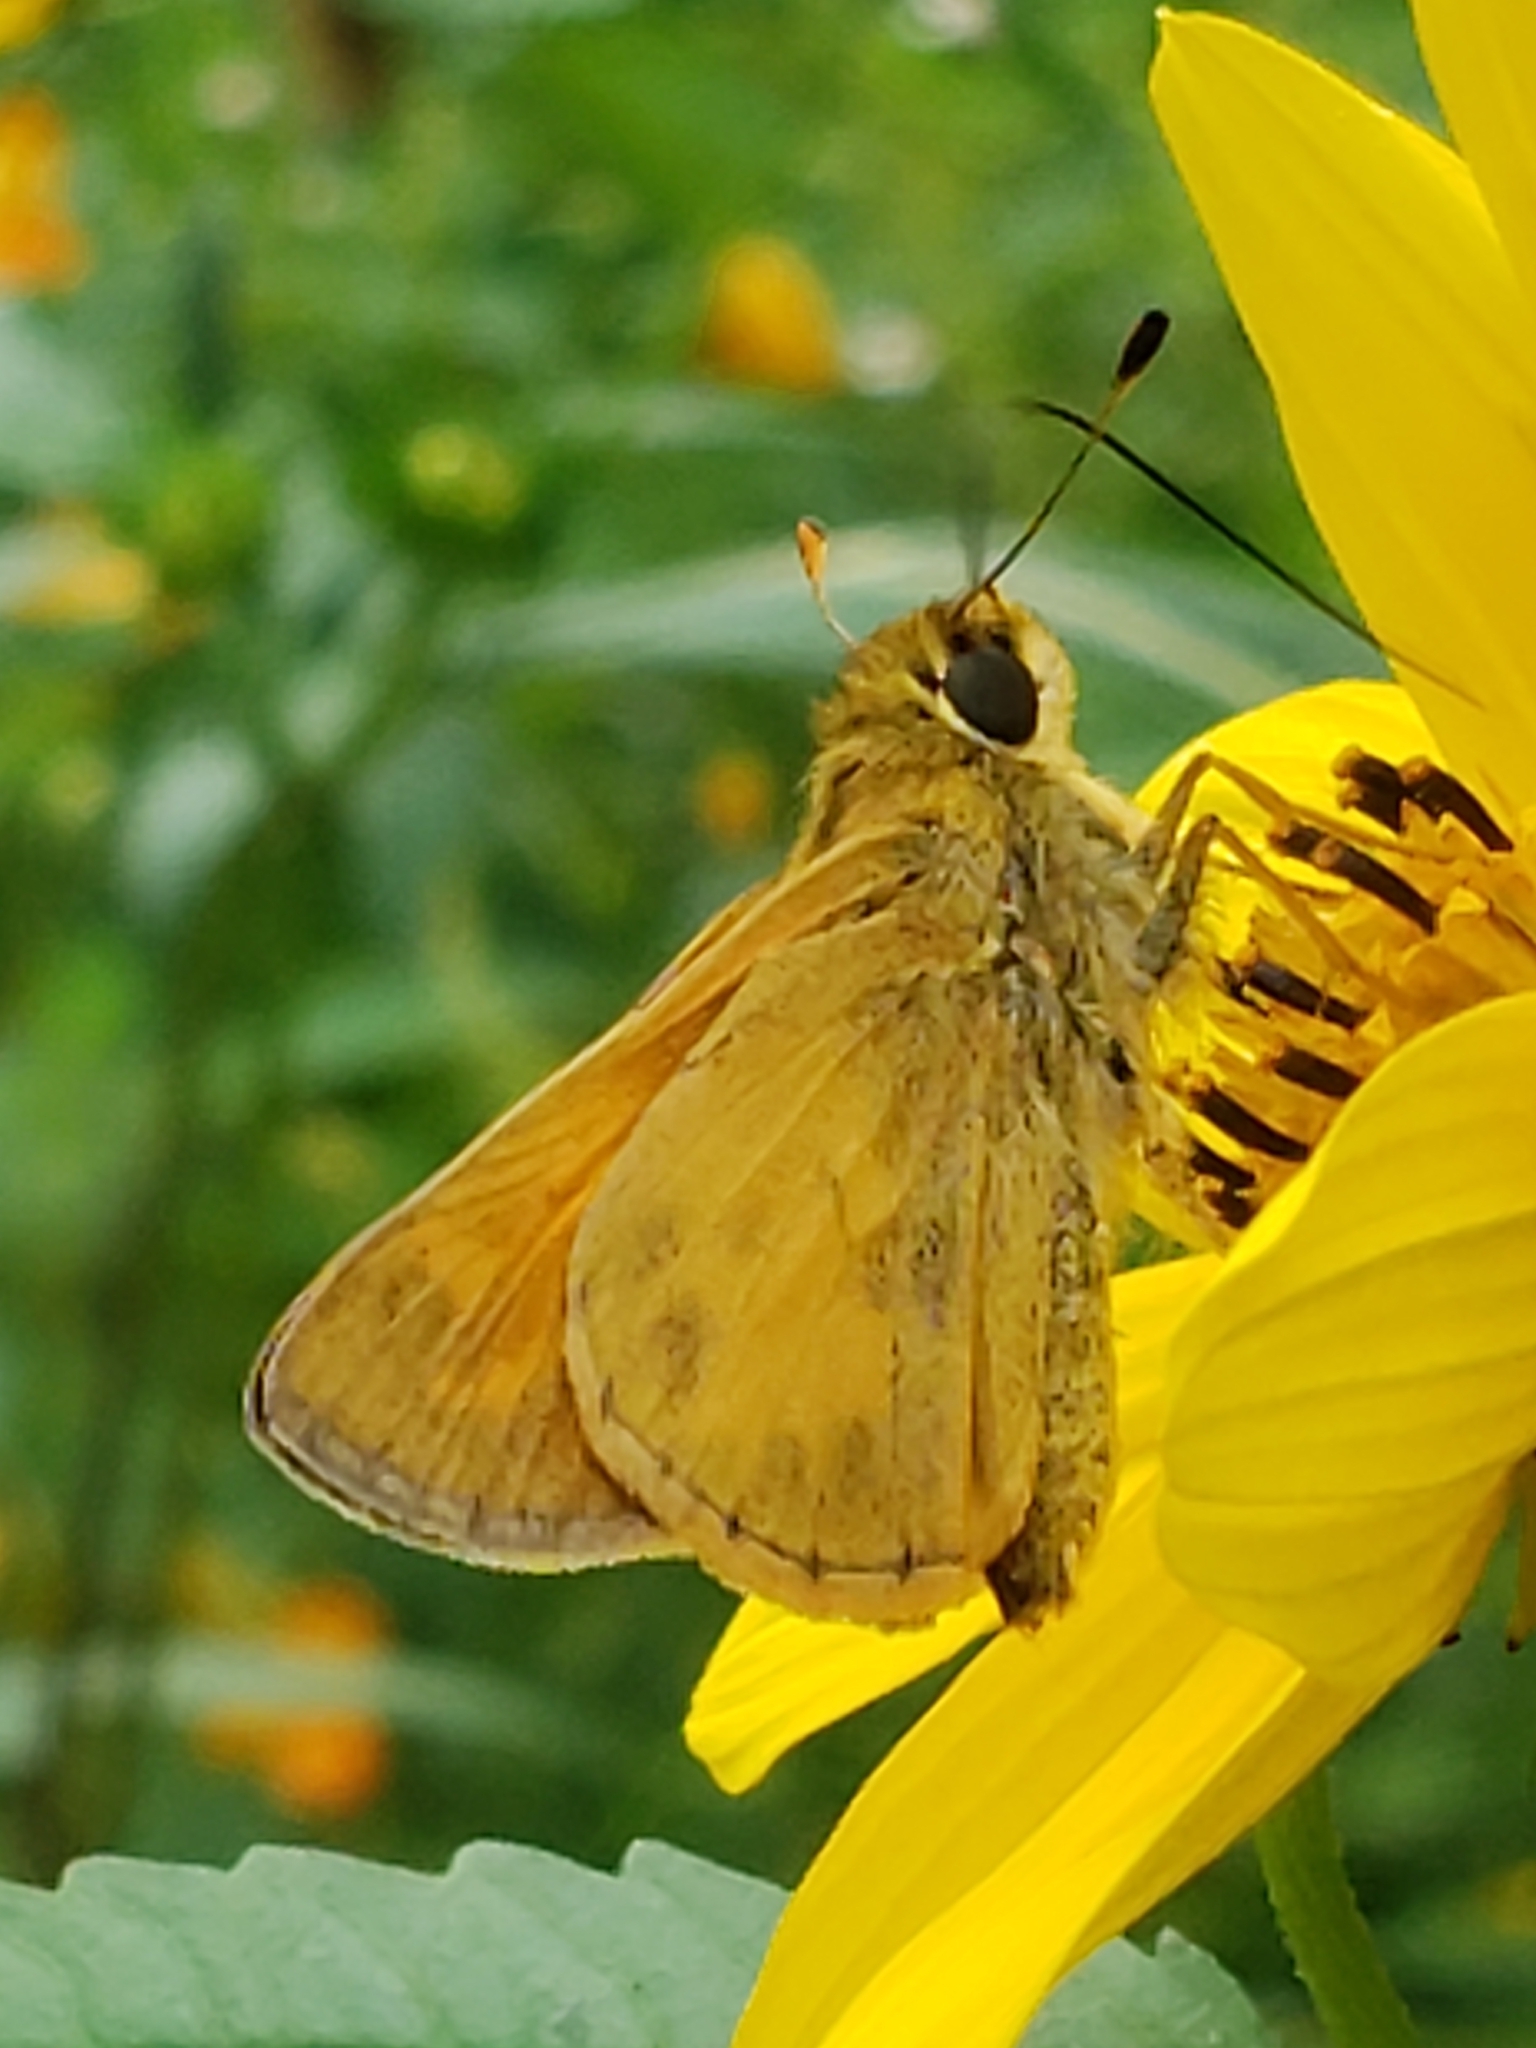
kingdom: Animalia
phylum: Arthropoda
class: Insecta
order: Lepidoptera
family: Hesperiidae
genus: Atalopedes
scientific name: Atalopedes
